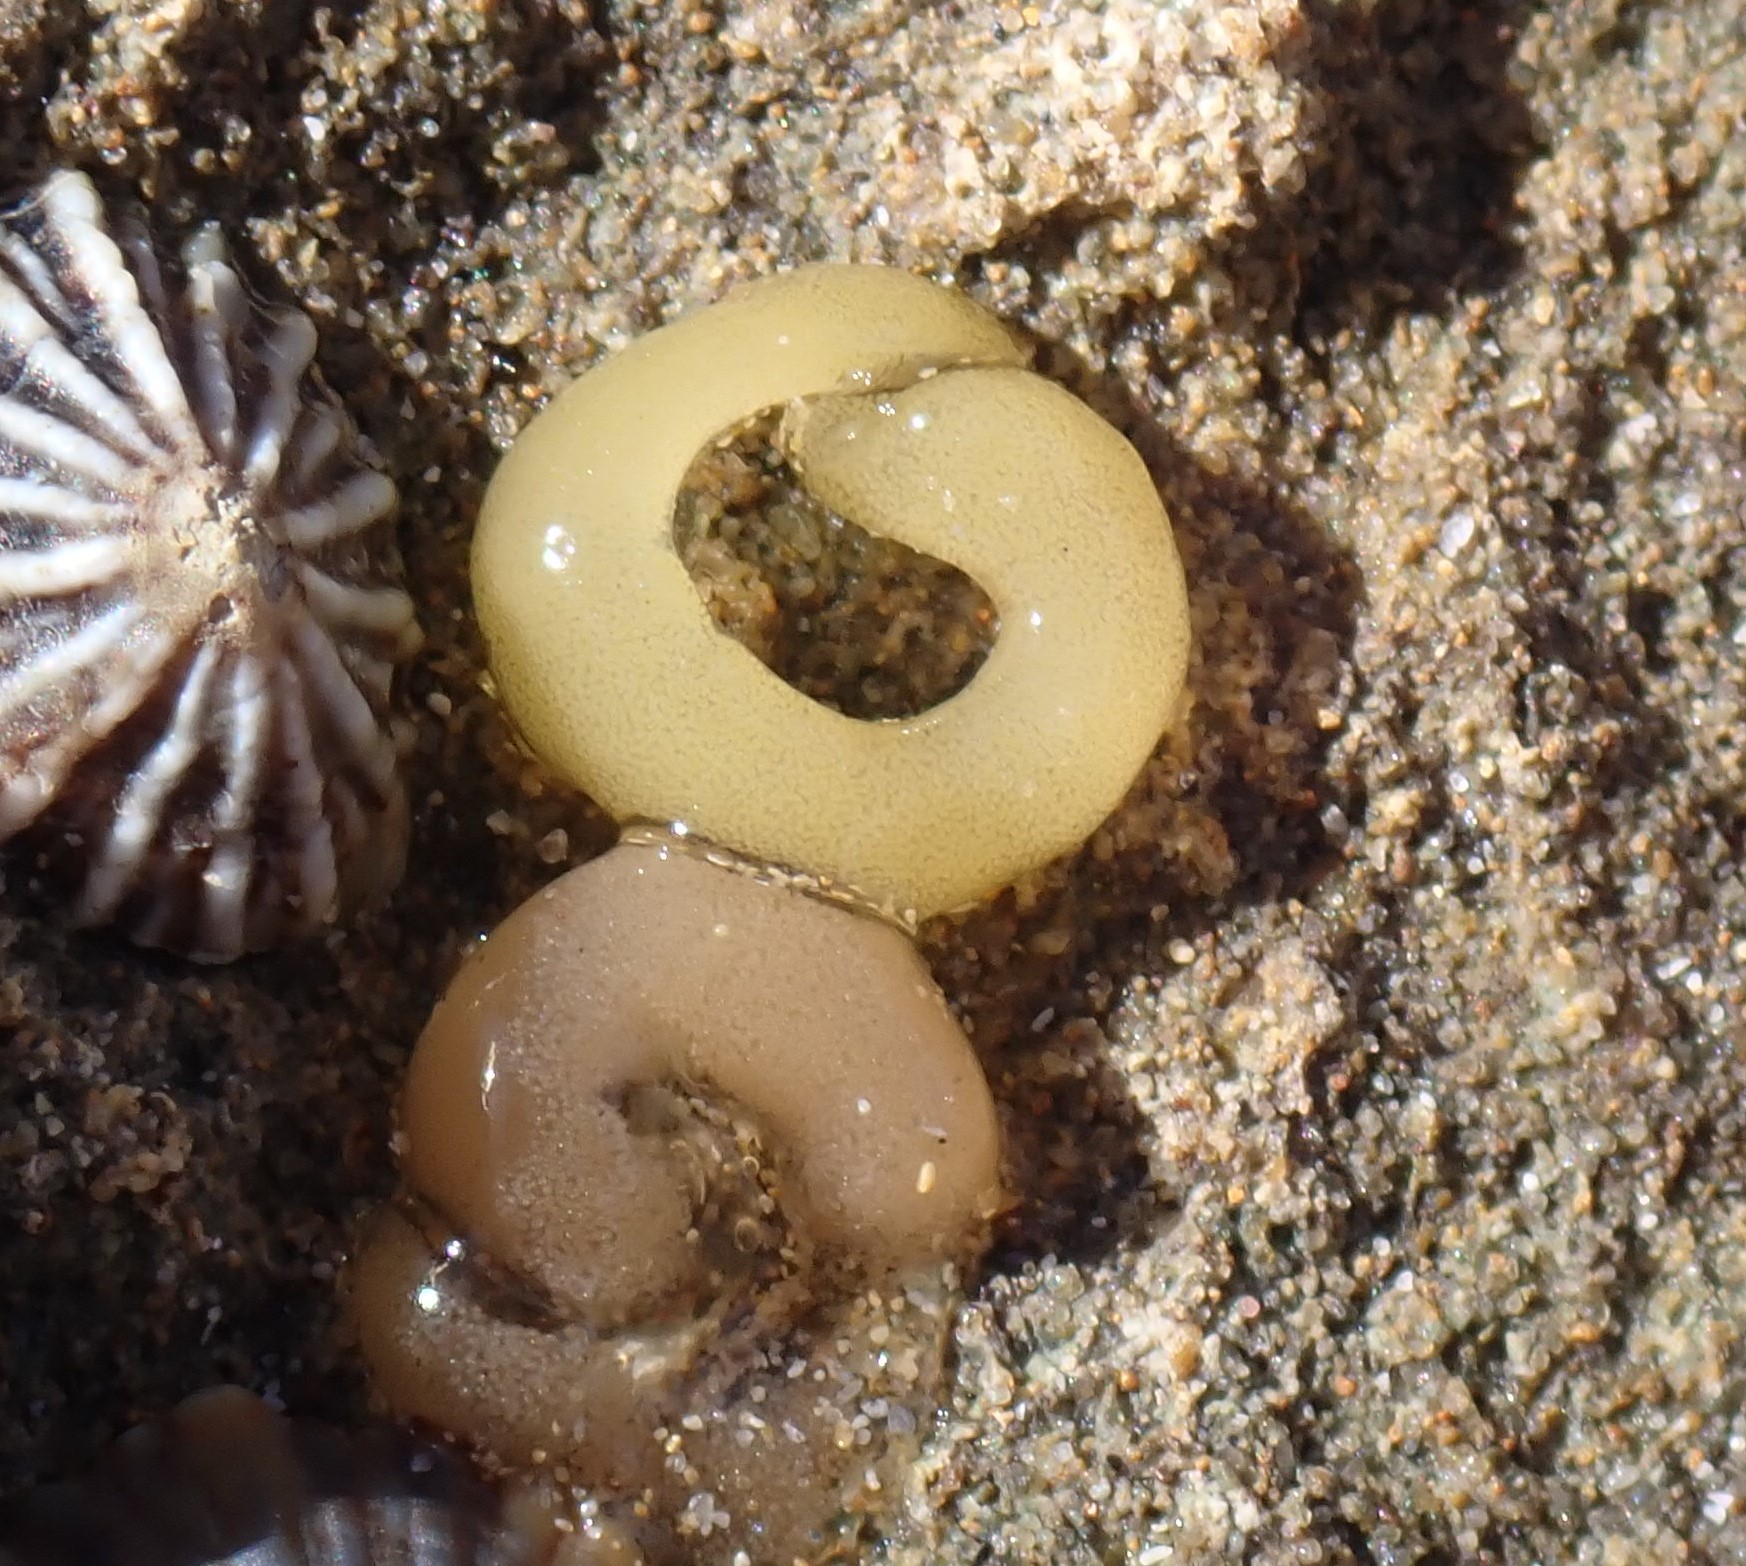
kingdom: Animalia
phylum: Mollusca
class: Gastropoda
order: Siphonariida
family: Siphonariidae
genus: Siphonaria
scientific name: Siphonaria diemenensis
